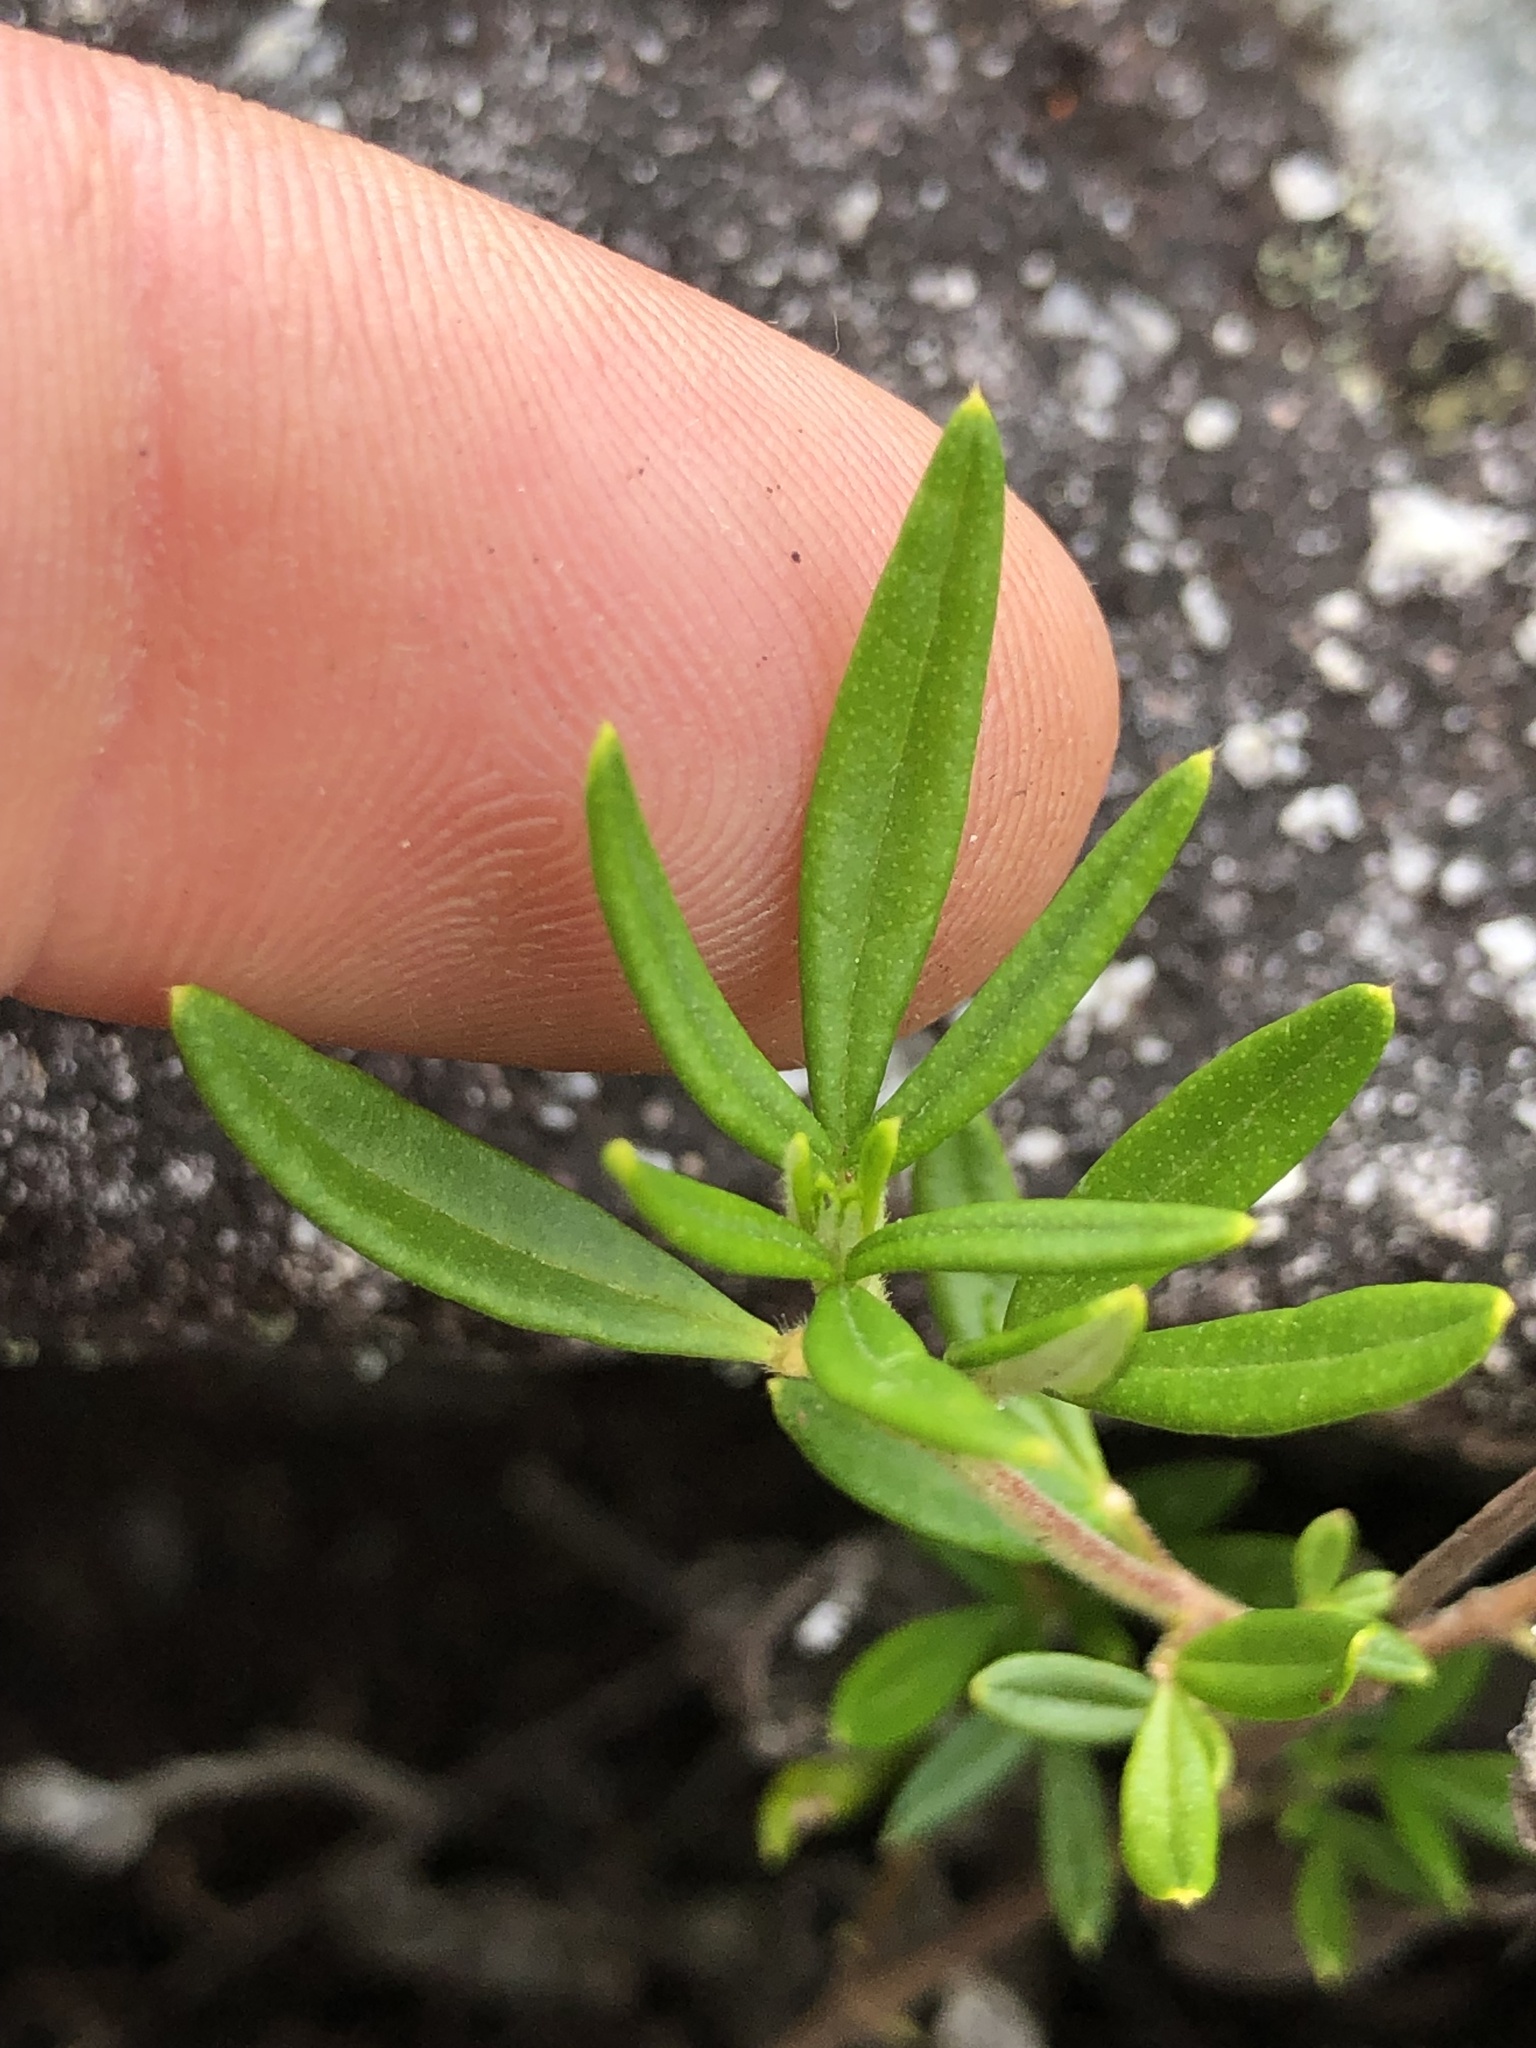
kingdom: Plantae
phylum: Tracheophyta
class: Magnoliopsida
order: Sapindales
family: Rutaceae
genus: Zieria
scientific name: Zieria fraseri
